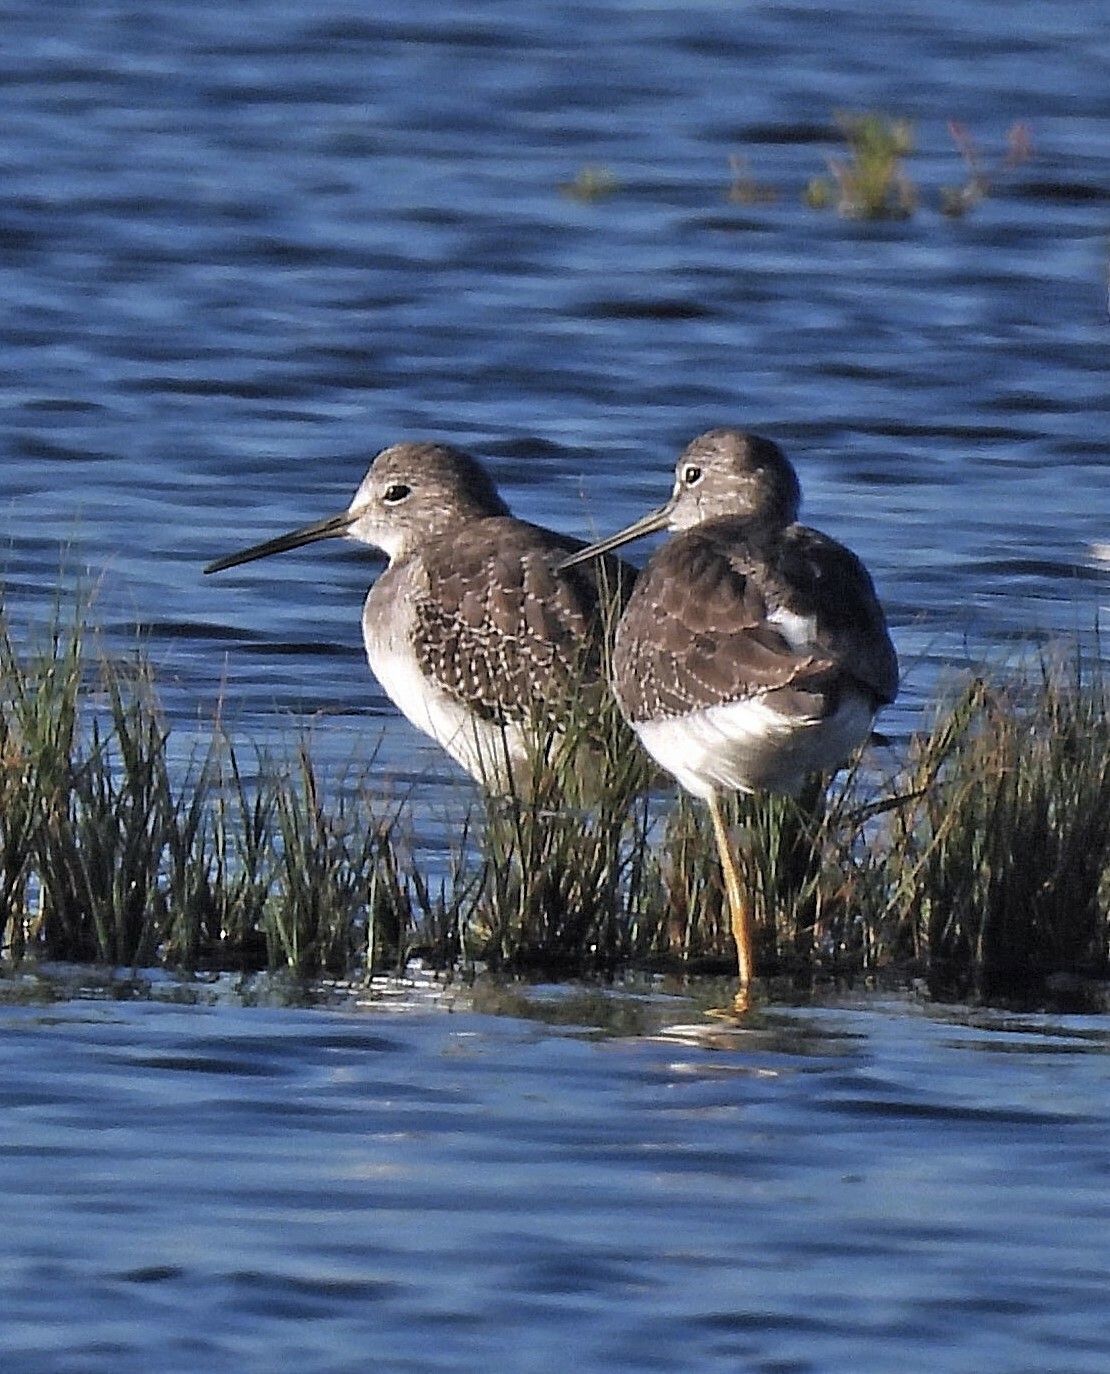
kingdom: Animalia
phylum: Chordata
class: Aves
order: Charadriiformes
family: Scolopacidae
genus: Tringa
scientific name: Tringa flavipes
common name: Lesser yellowlegs
